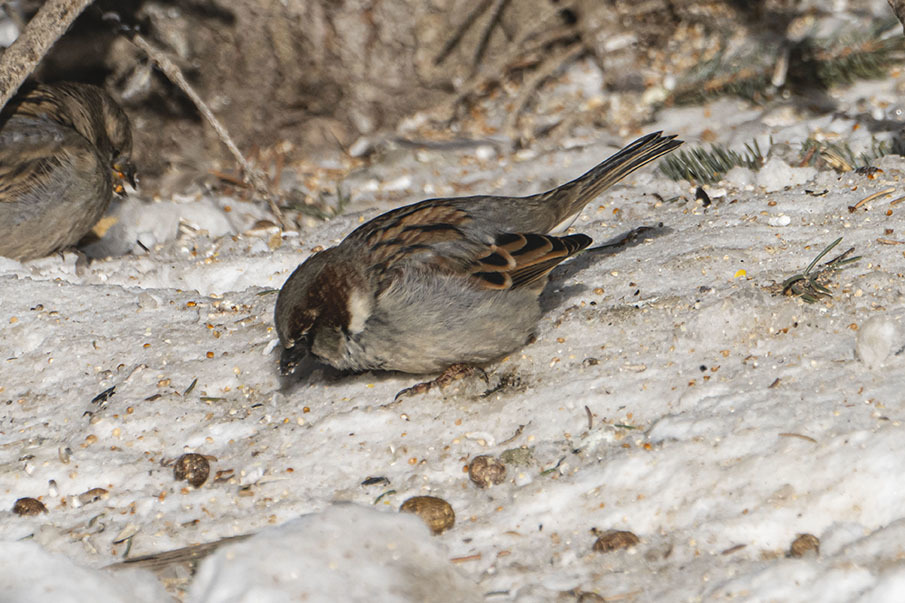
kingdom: Animalia
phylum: Chordata
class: Aves
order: Passeriformes
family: Passeridae
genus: Passer
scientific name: Passer domesticus
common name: House sparrow
